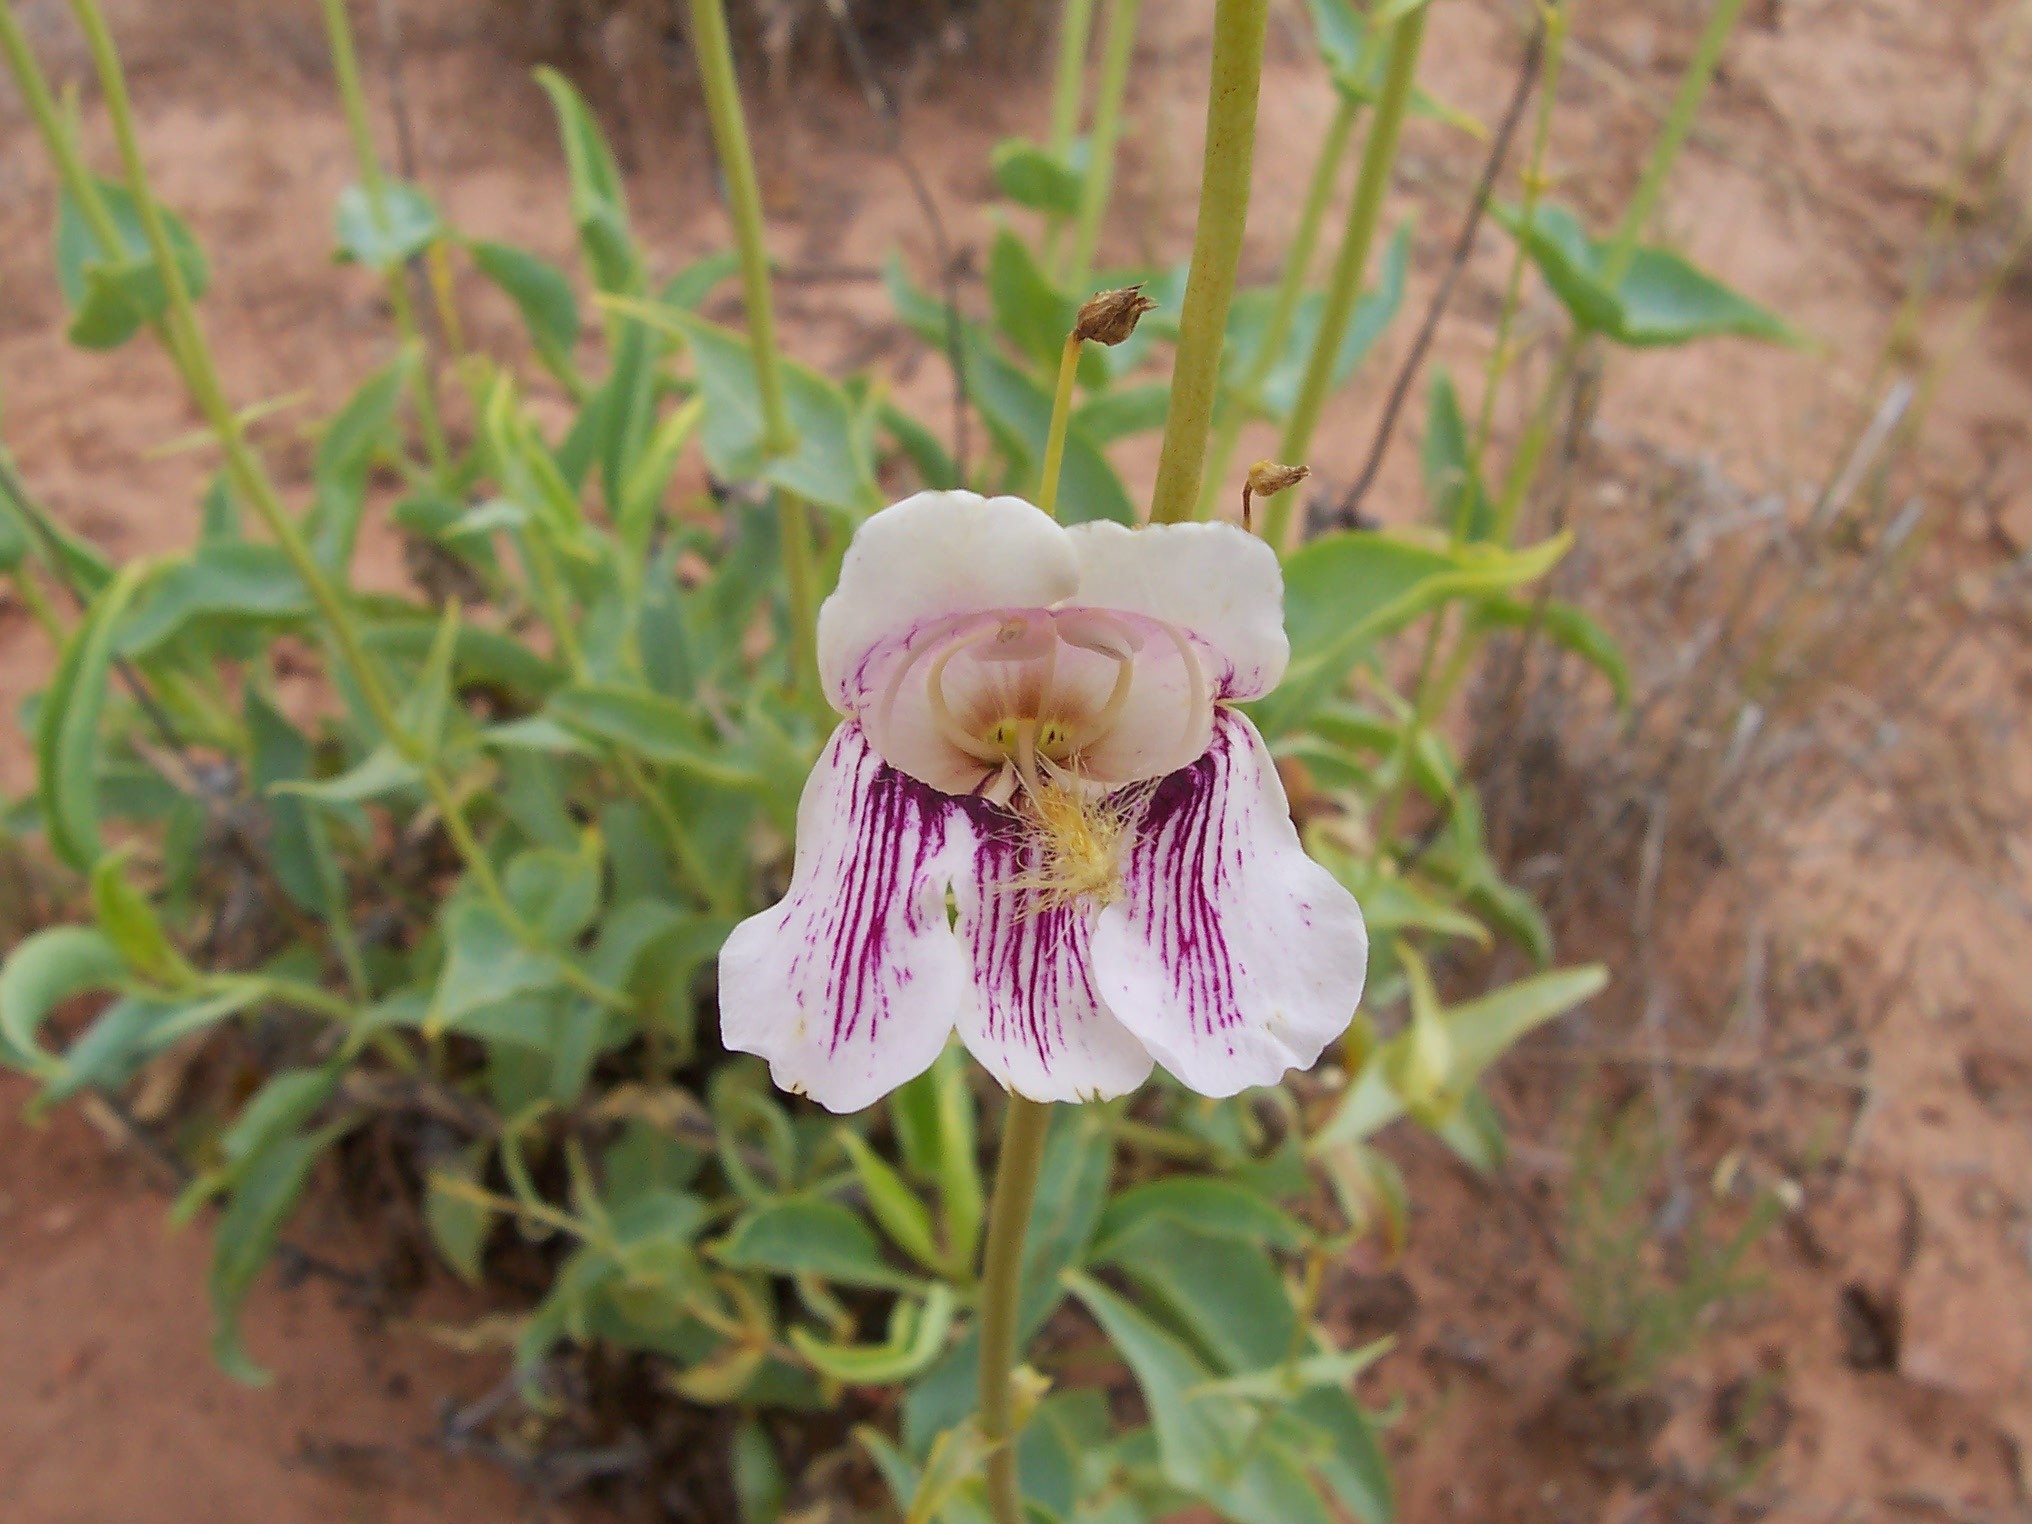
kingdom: Plantae
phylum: Tracheophyta
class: Magnoliopsida
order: Lamiales
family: Plantaginaceae
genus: Penstemon
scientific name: Penstemon palmeri
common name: Palmer penstemon
